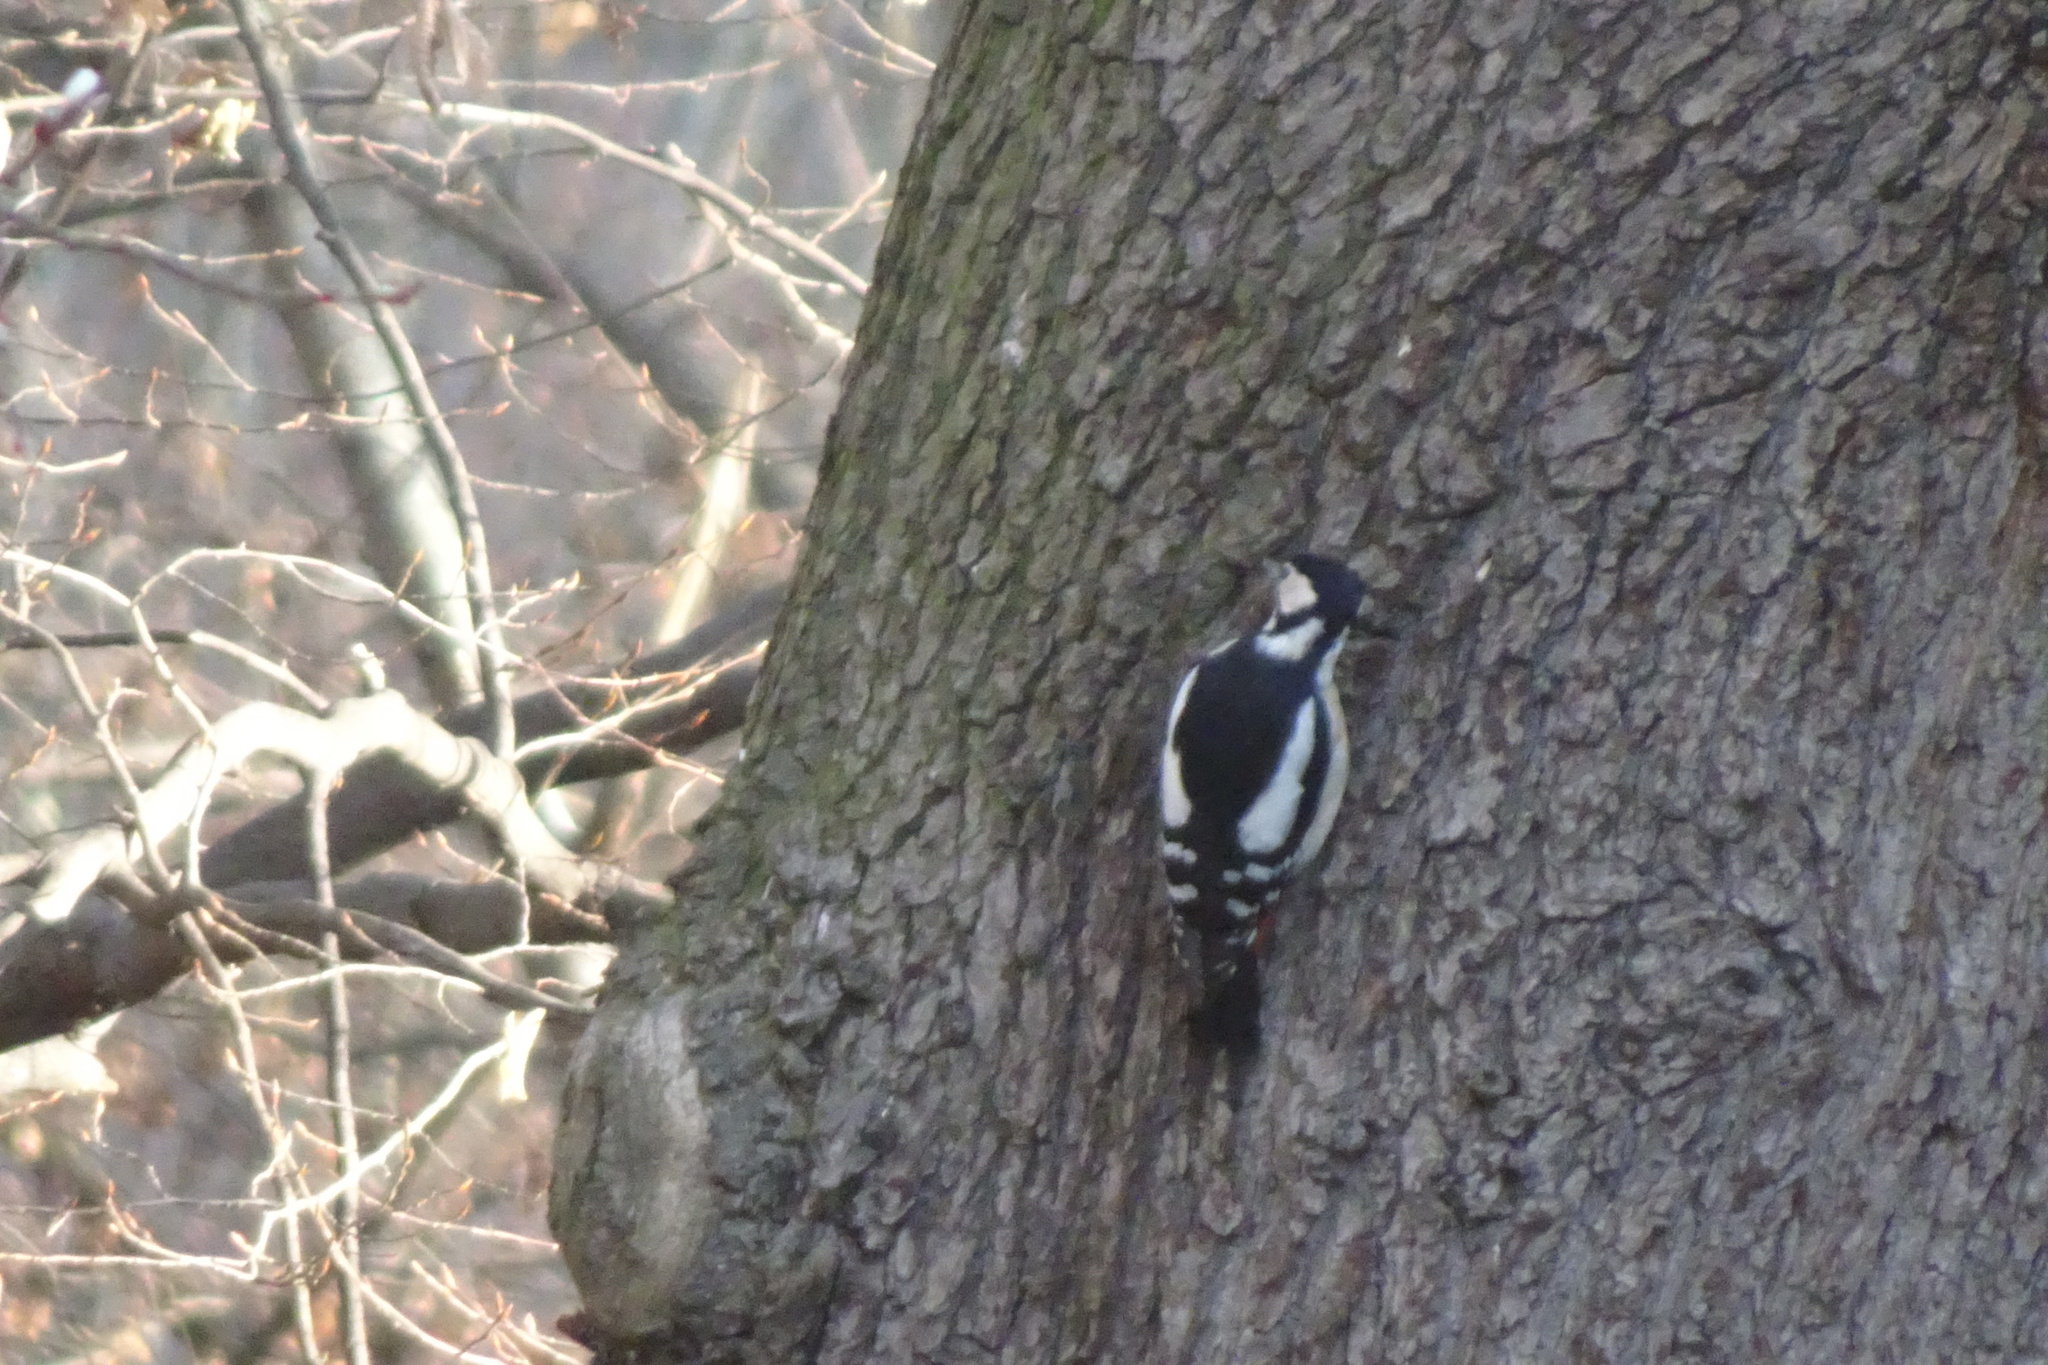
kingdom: Animalia
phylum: Chordata
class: Aves
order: Piciformes
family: Picidae
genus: Dendrocopos
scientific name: Dendrocopos major
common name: Great spotted woodpecker
